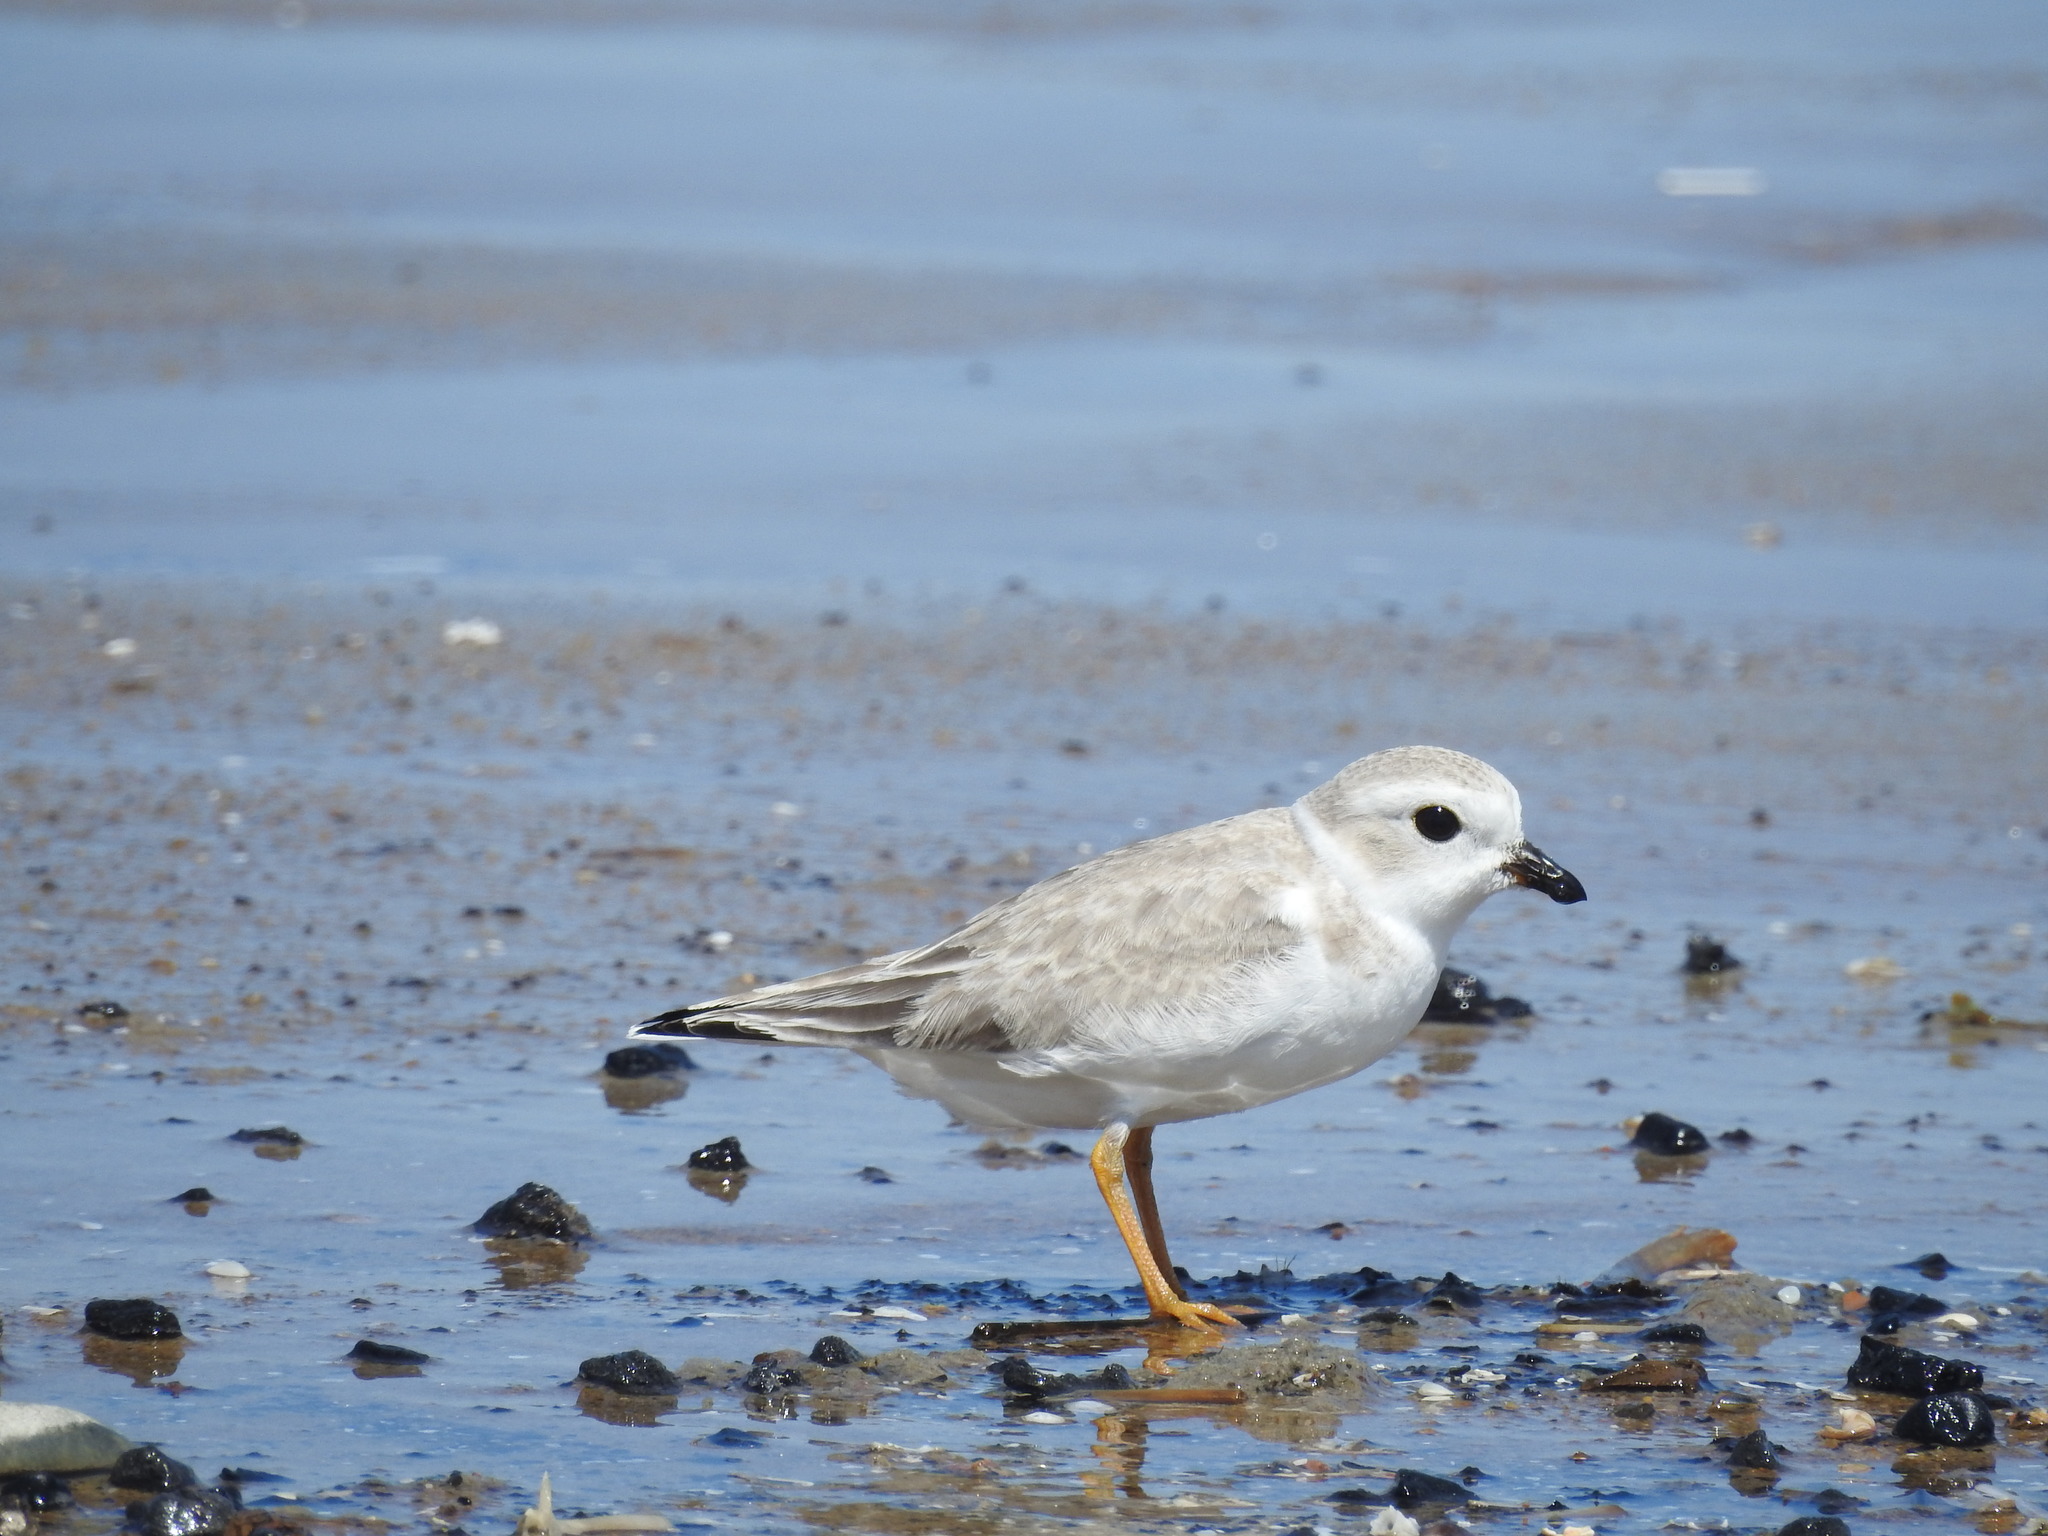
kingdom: Animalia
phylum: Chordata
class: Aves
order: Charadriiformes
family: Charadriidae
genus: Charadrius
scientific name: Charadrius melodus
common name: Piping plover
